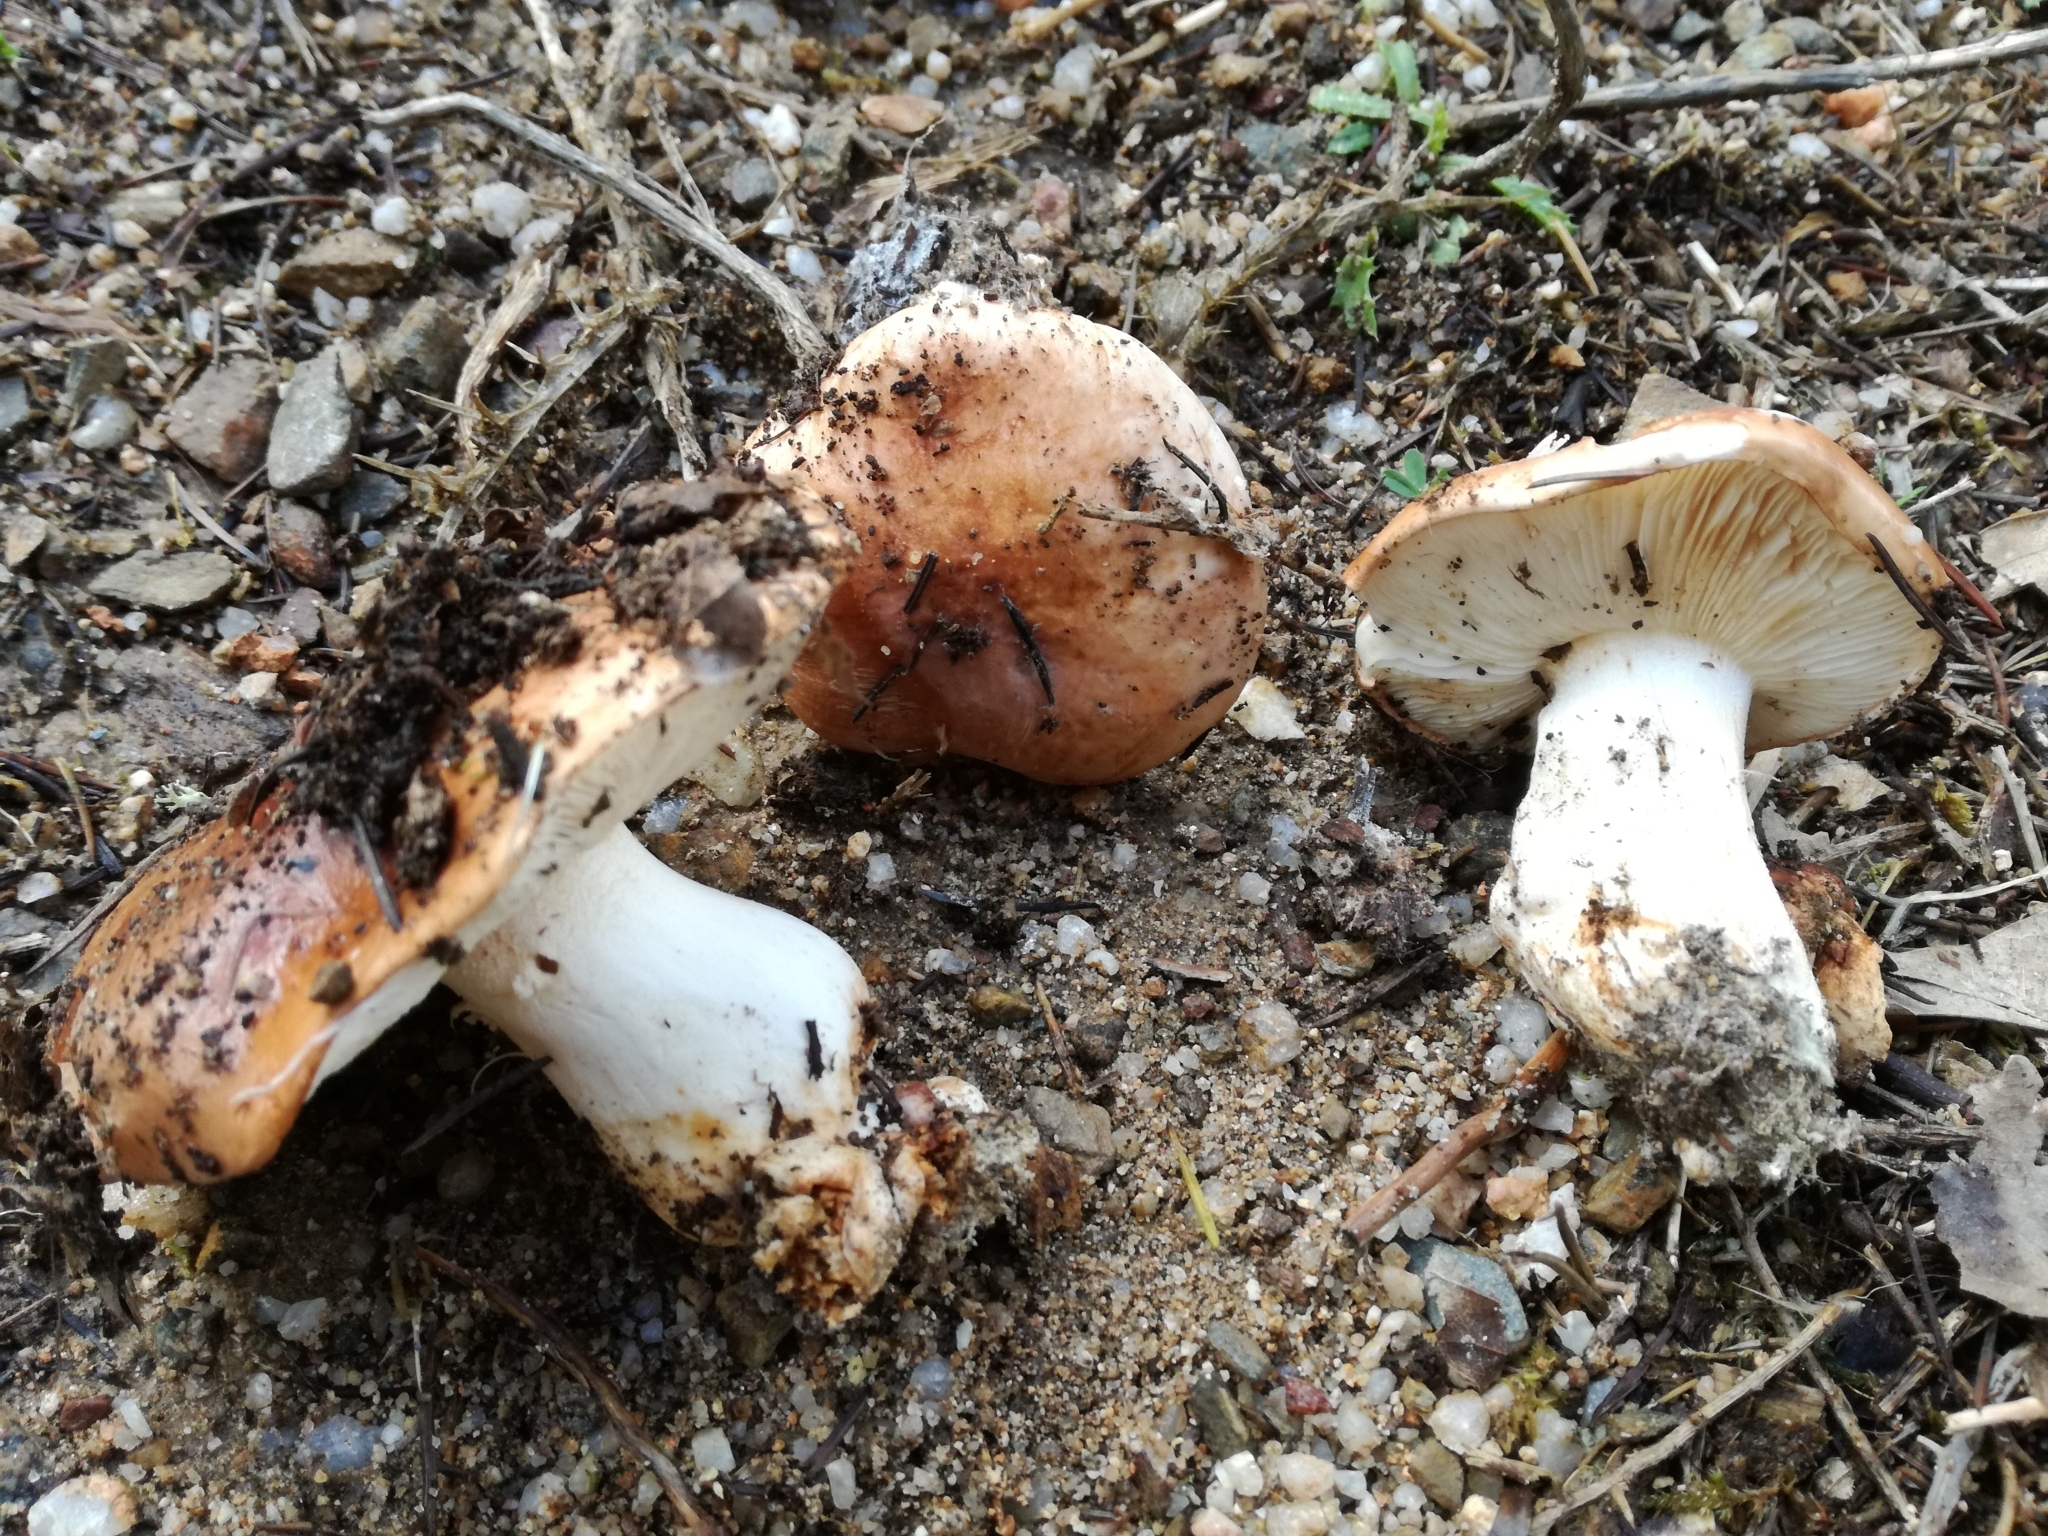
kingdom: Fungi
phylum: Basidiomycota
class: Agaricomycetes
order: Agaricales
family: Tricholomataceae
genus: Tricholoma
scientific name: Tricholoma pessundatum
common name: Tacked knight
